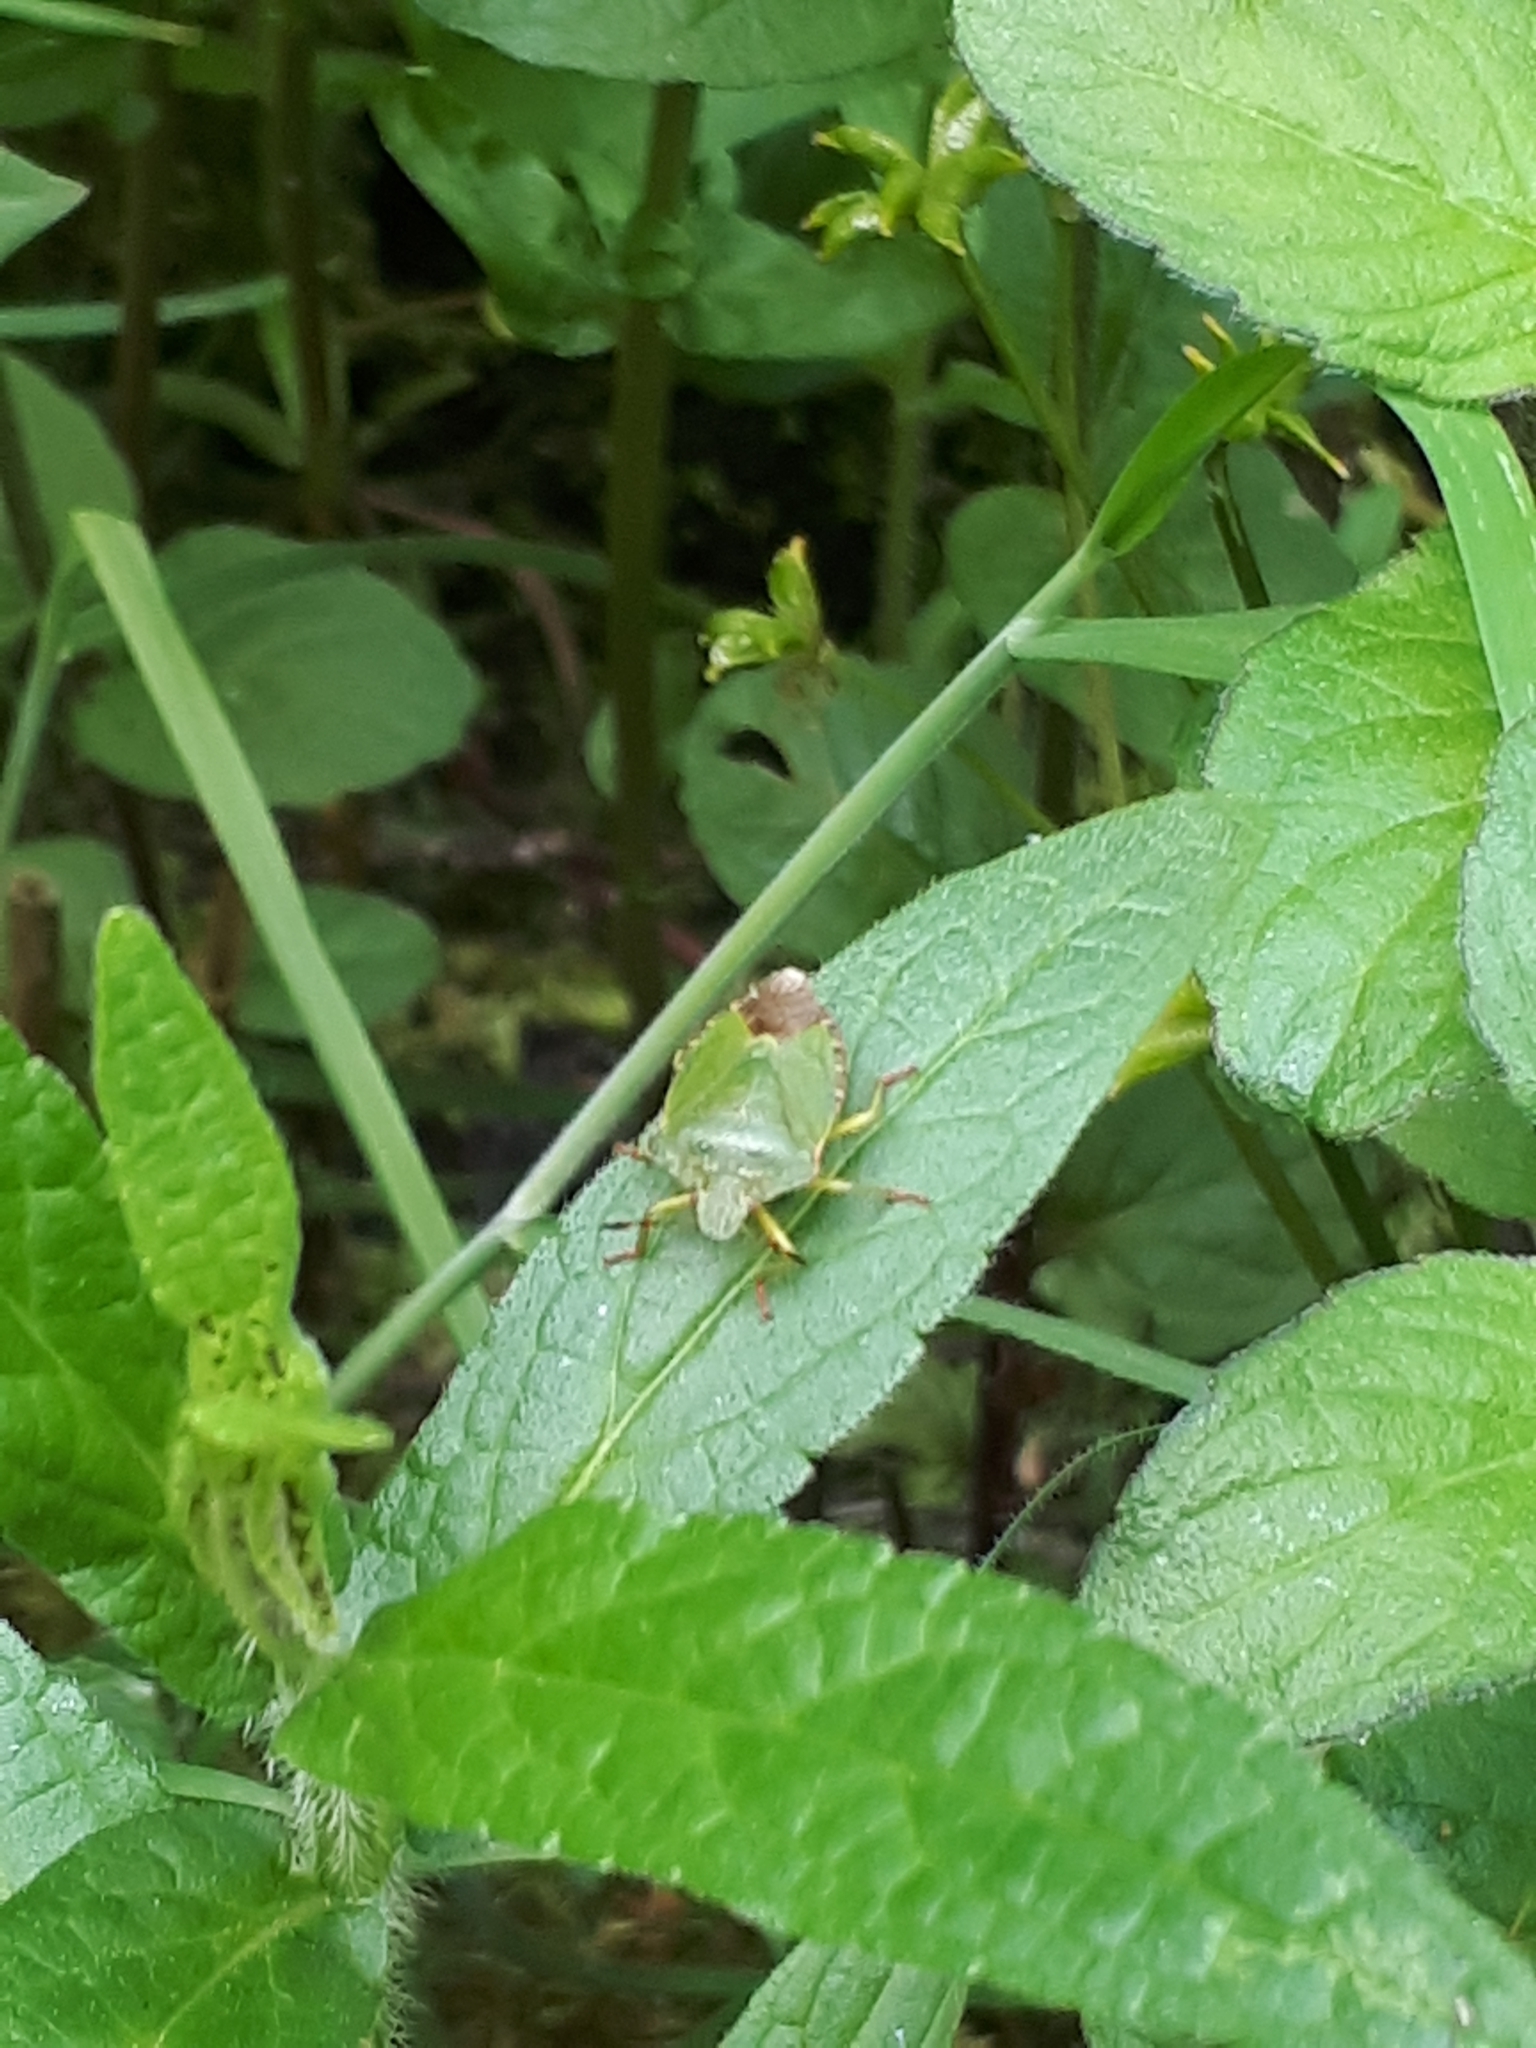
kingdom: Animalia
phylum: Arthropoda
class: Insecta
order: Hemiptera
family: Pentatomidae
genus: Palomena
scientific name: Palomena prasina
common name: Green shieldbug
